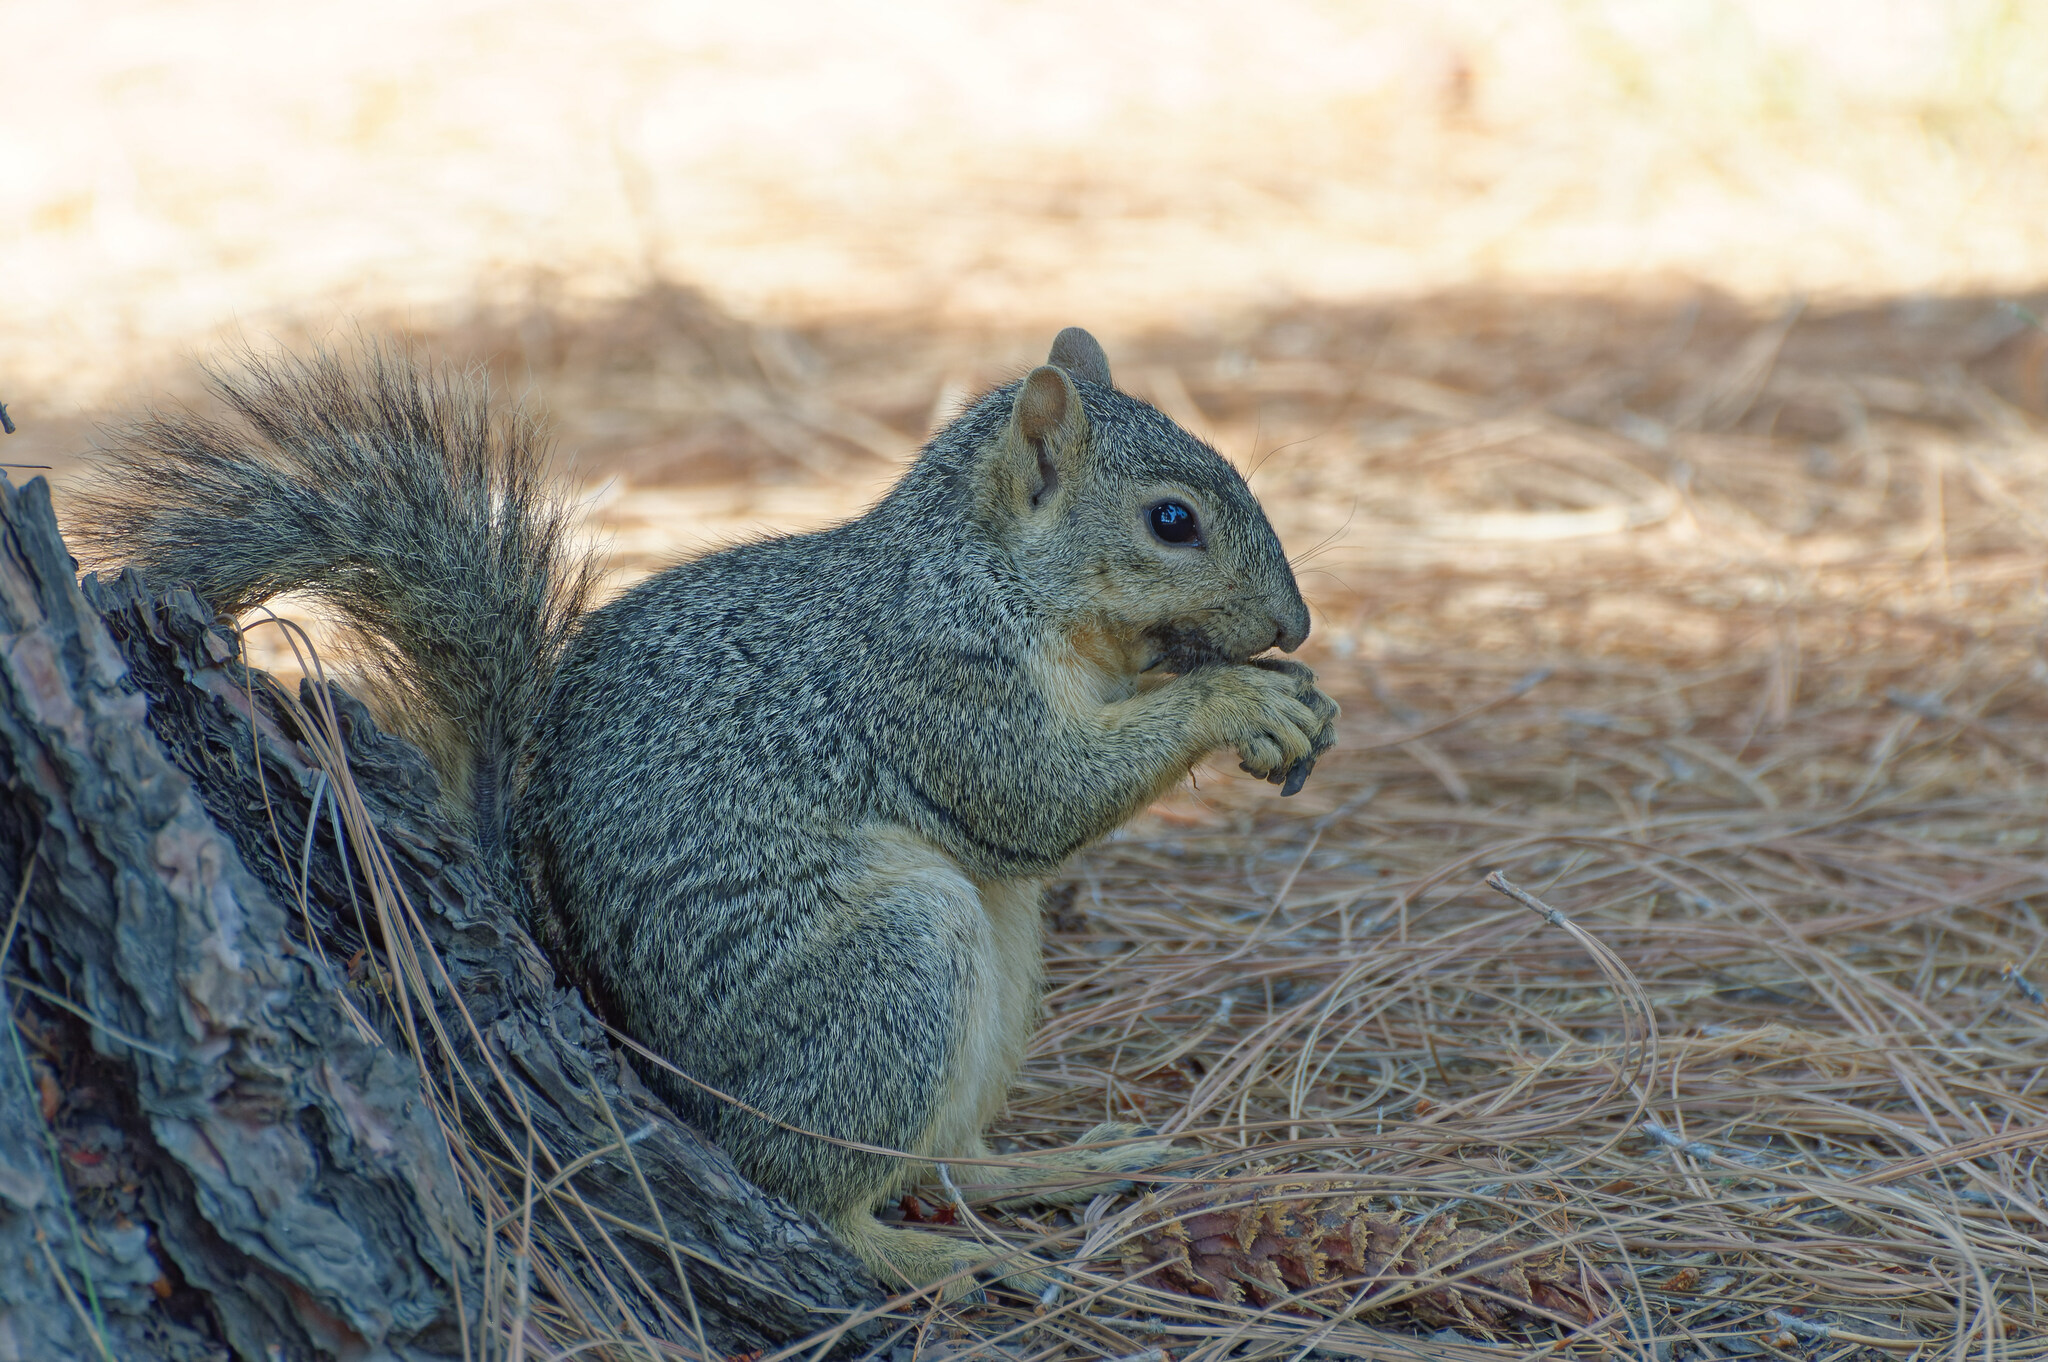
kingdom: Animalia
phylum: Chordata
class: Mammalia
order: Rodentia
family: Sciuridae
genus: Sciurus
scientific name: Sciurus niger
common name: Fox squirrel
